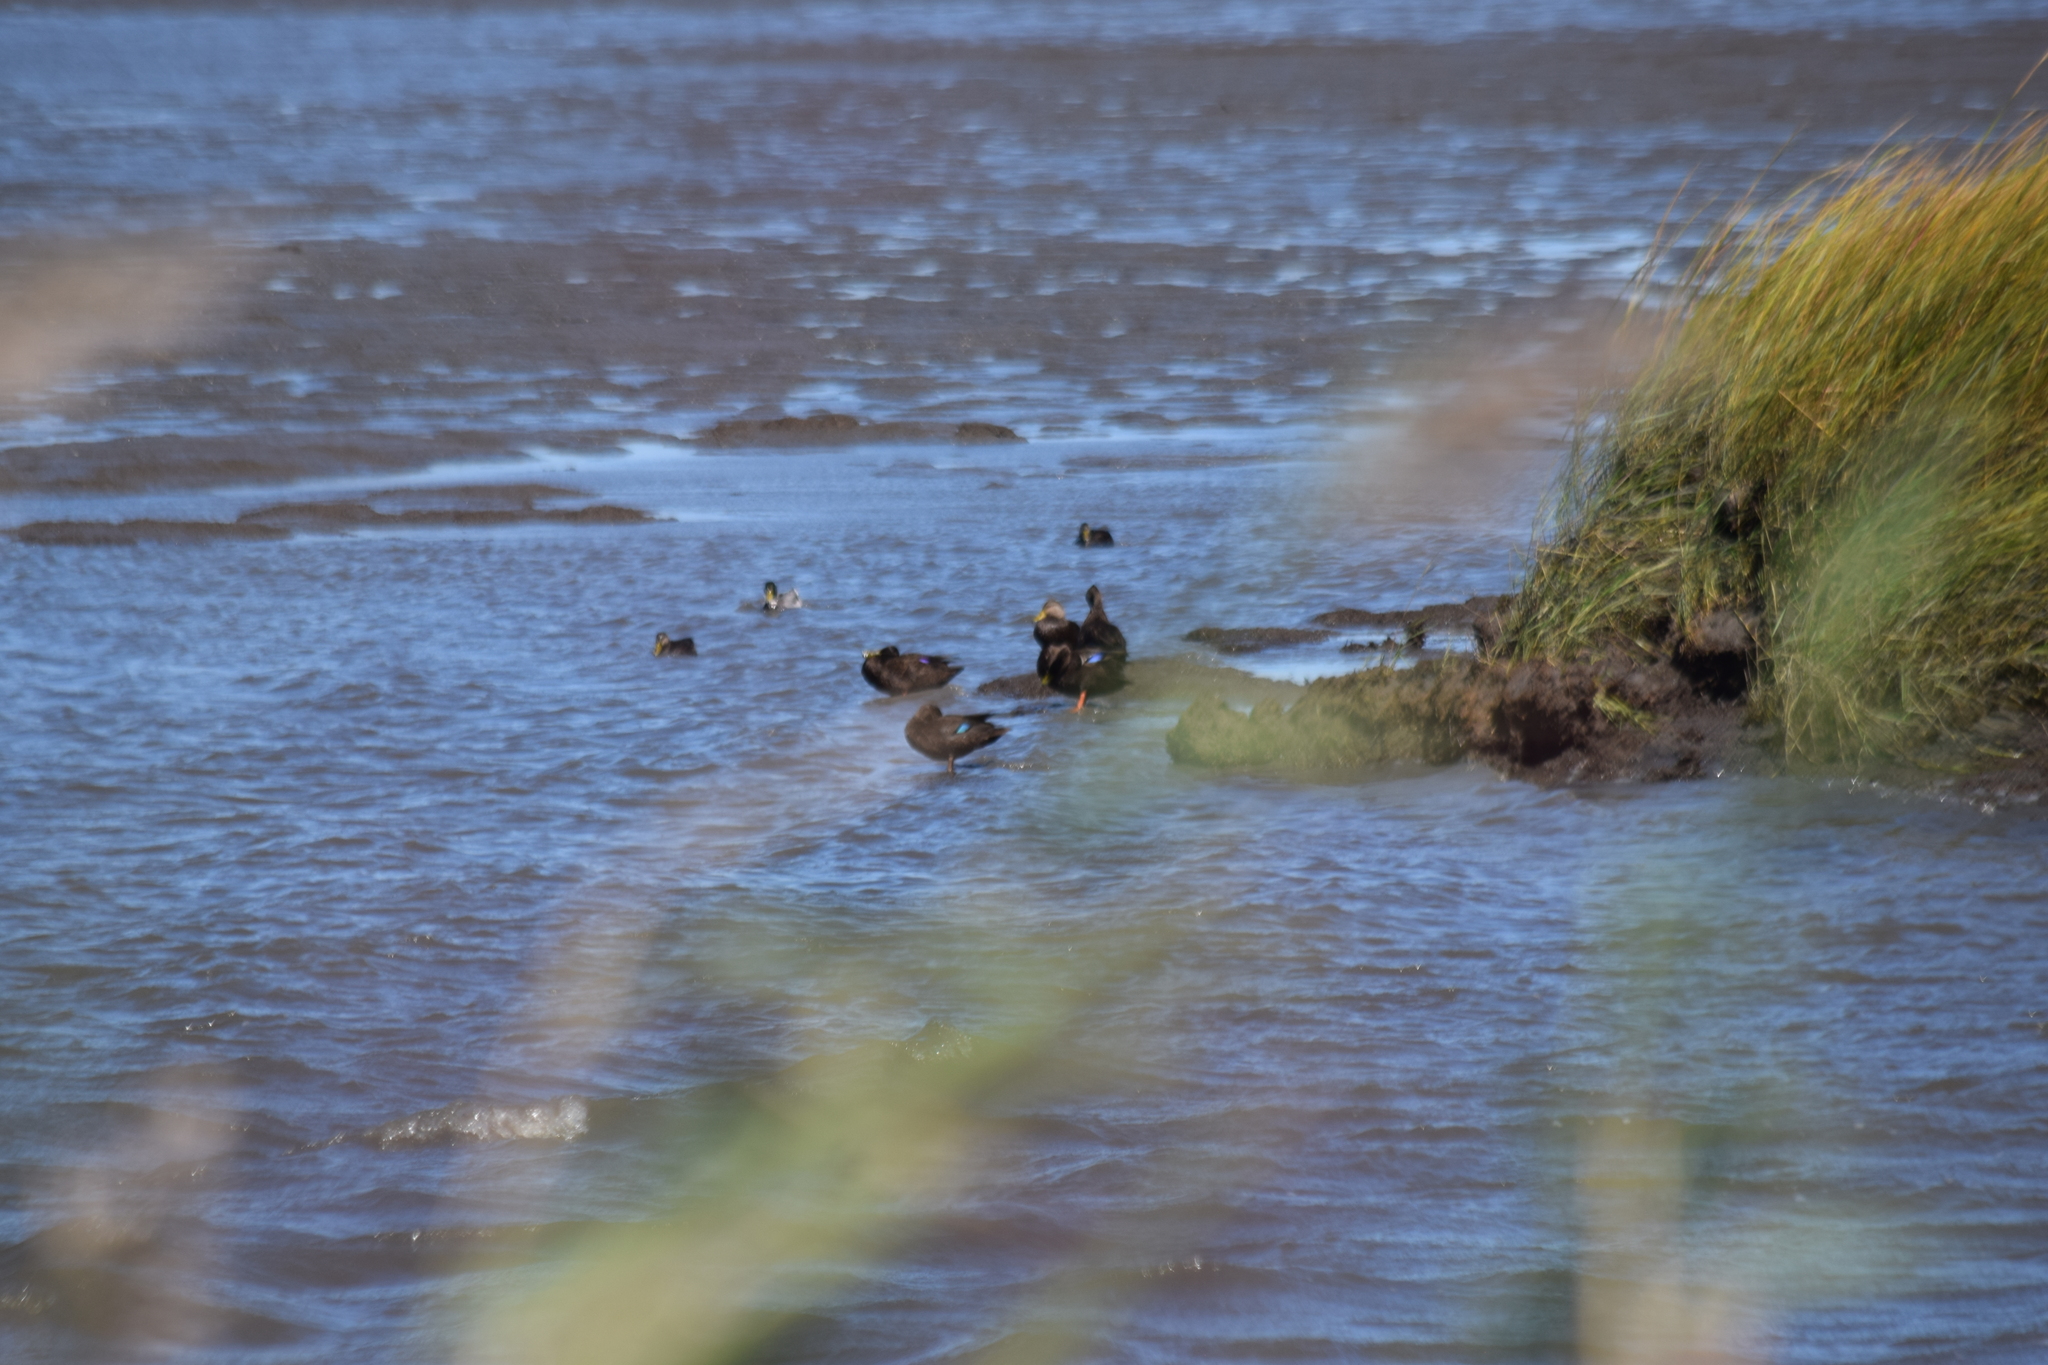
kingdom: Animalia
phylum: Chordata
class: Aves
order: Anseriformes
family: Anatidae
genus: Anas
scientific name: Anas rubripes
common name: American black duck
